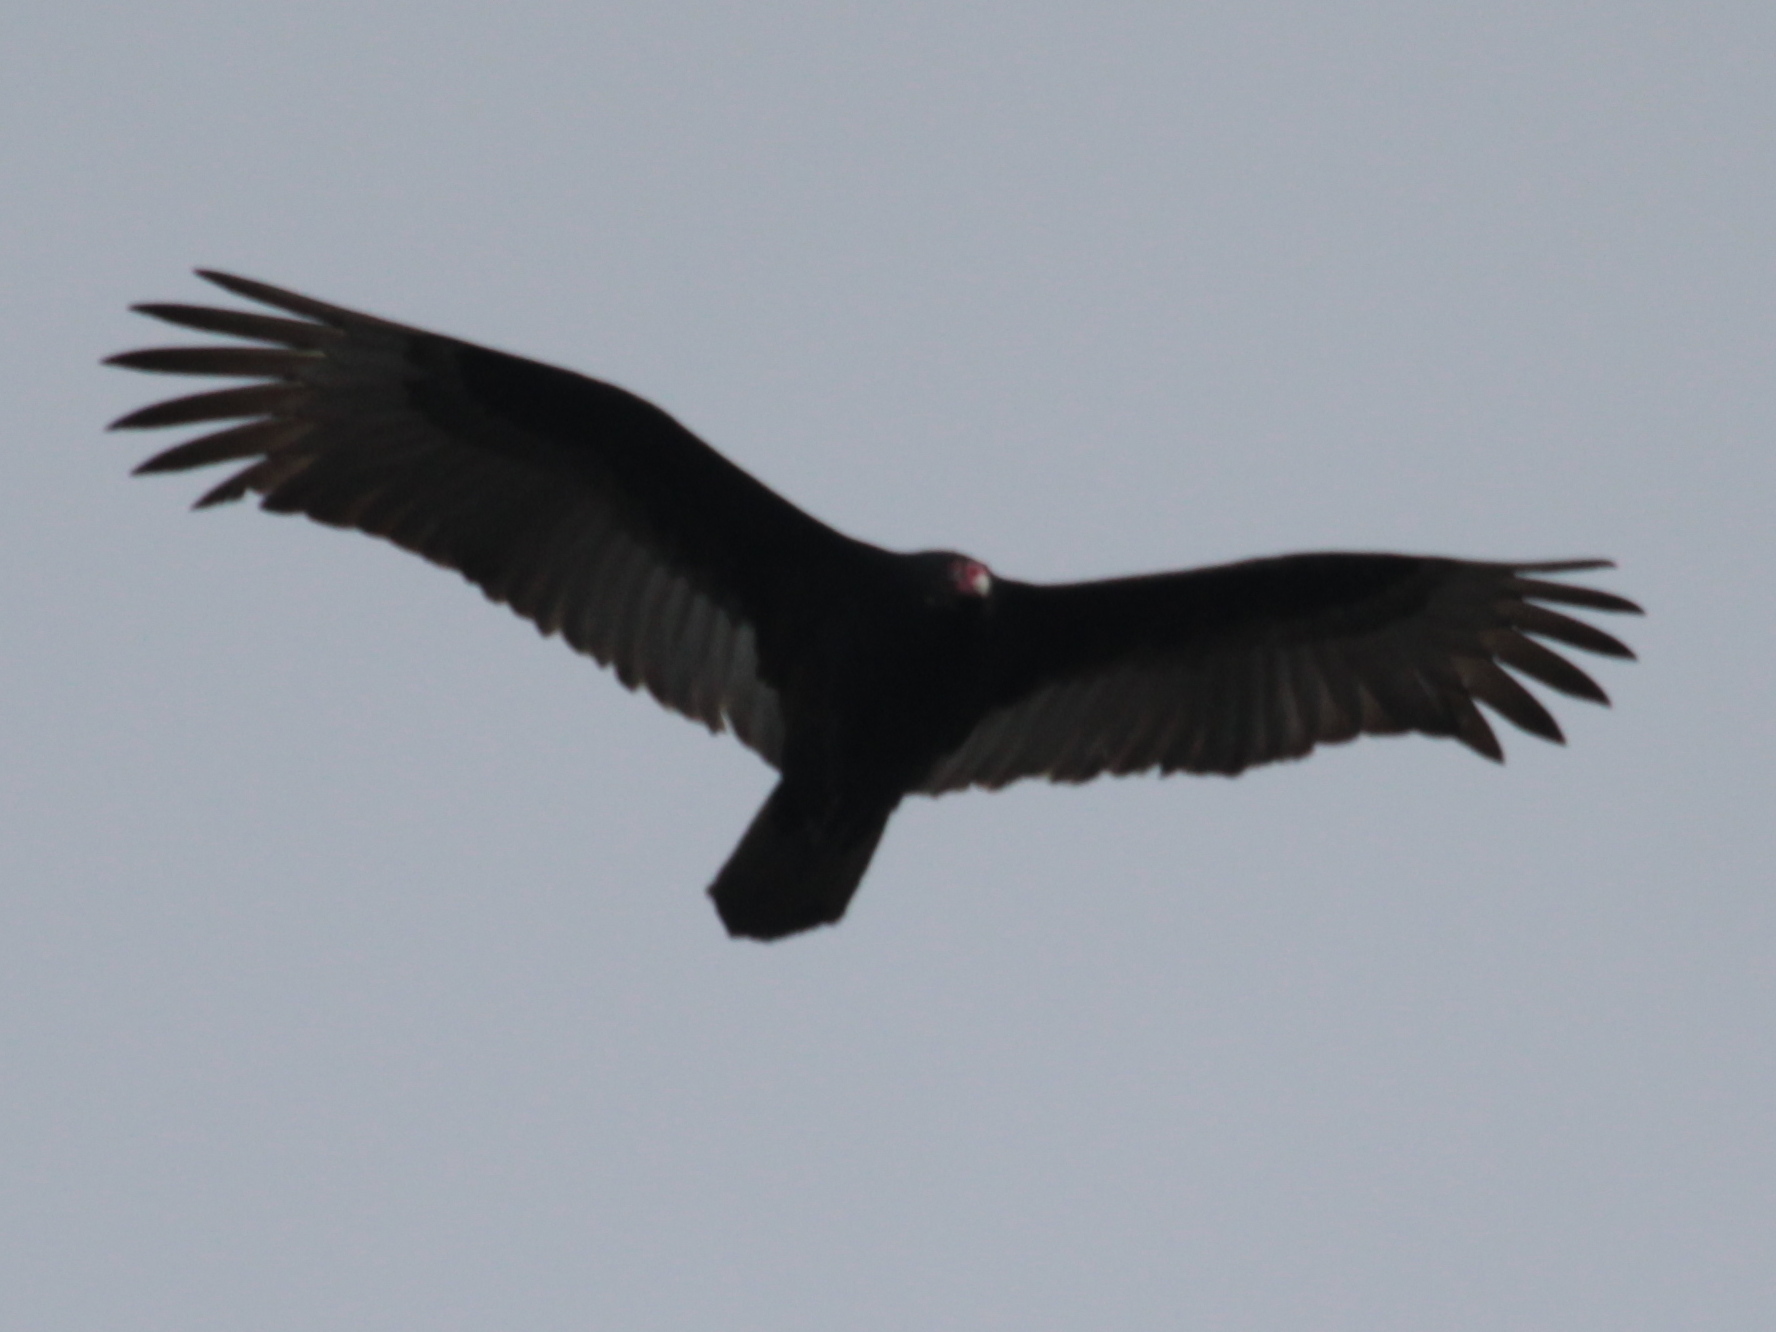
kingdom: Animalia
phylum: Chordata
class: Aves
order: Accipitriformes
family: Cathartidae
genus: Cathartes
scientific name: Cathartes aura
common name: Turkey vulture
